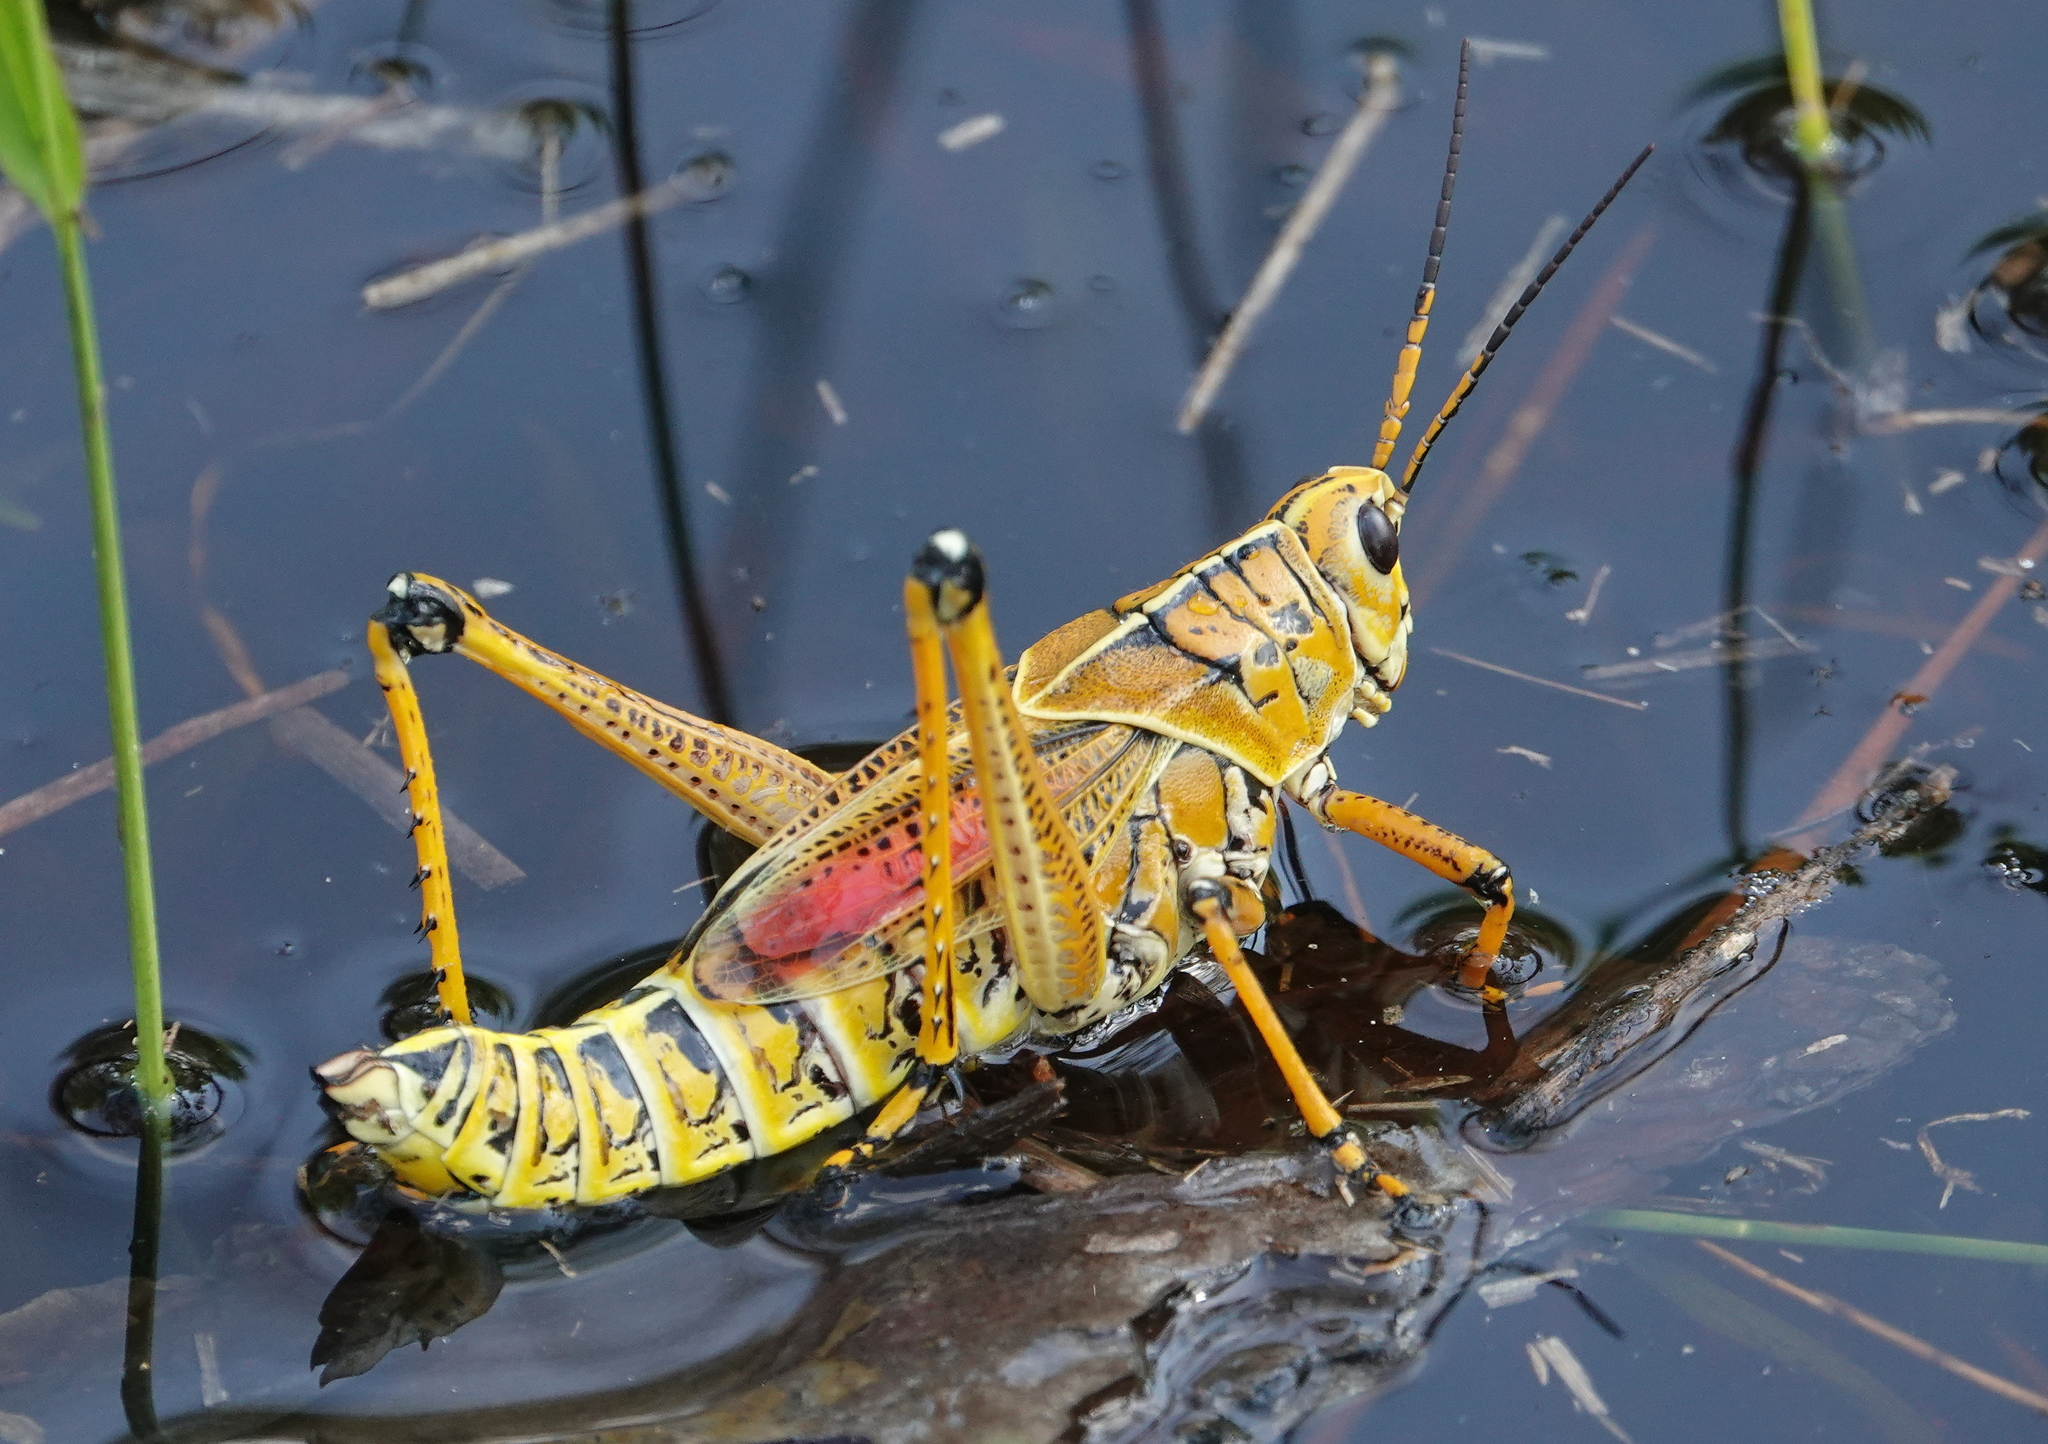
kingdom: Animalia
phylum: Arthropoda
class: Insecta
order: Orthoptera
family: Romaleidae
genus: Romalea
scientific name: Romalea microptera
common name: Eastern lubber grasshopper
